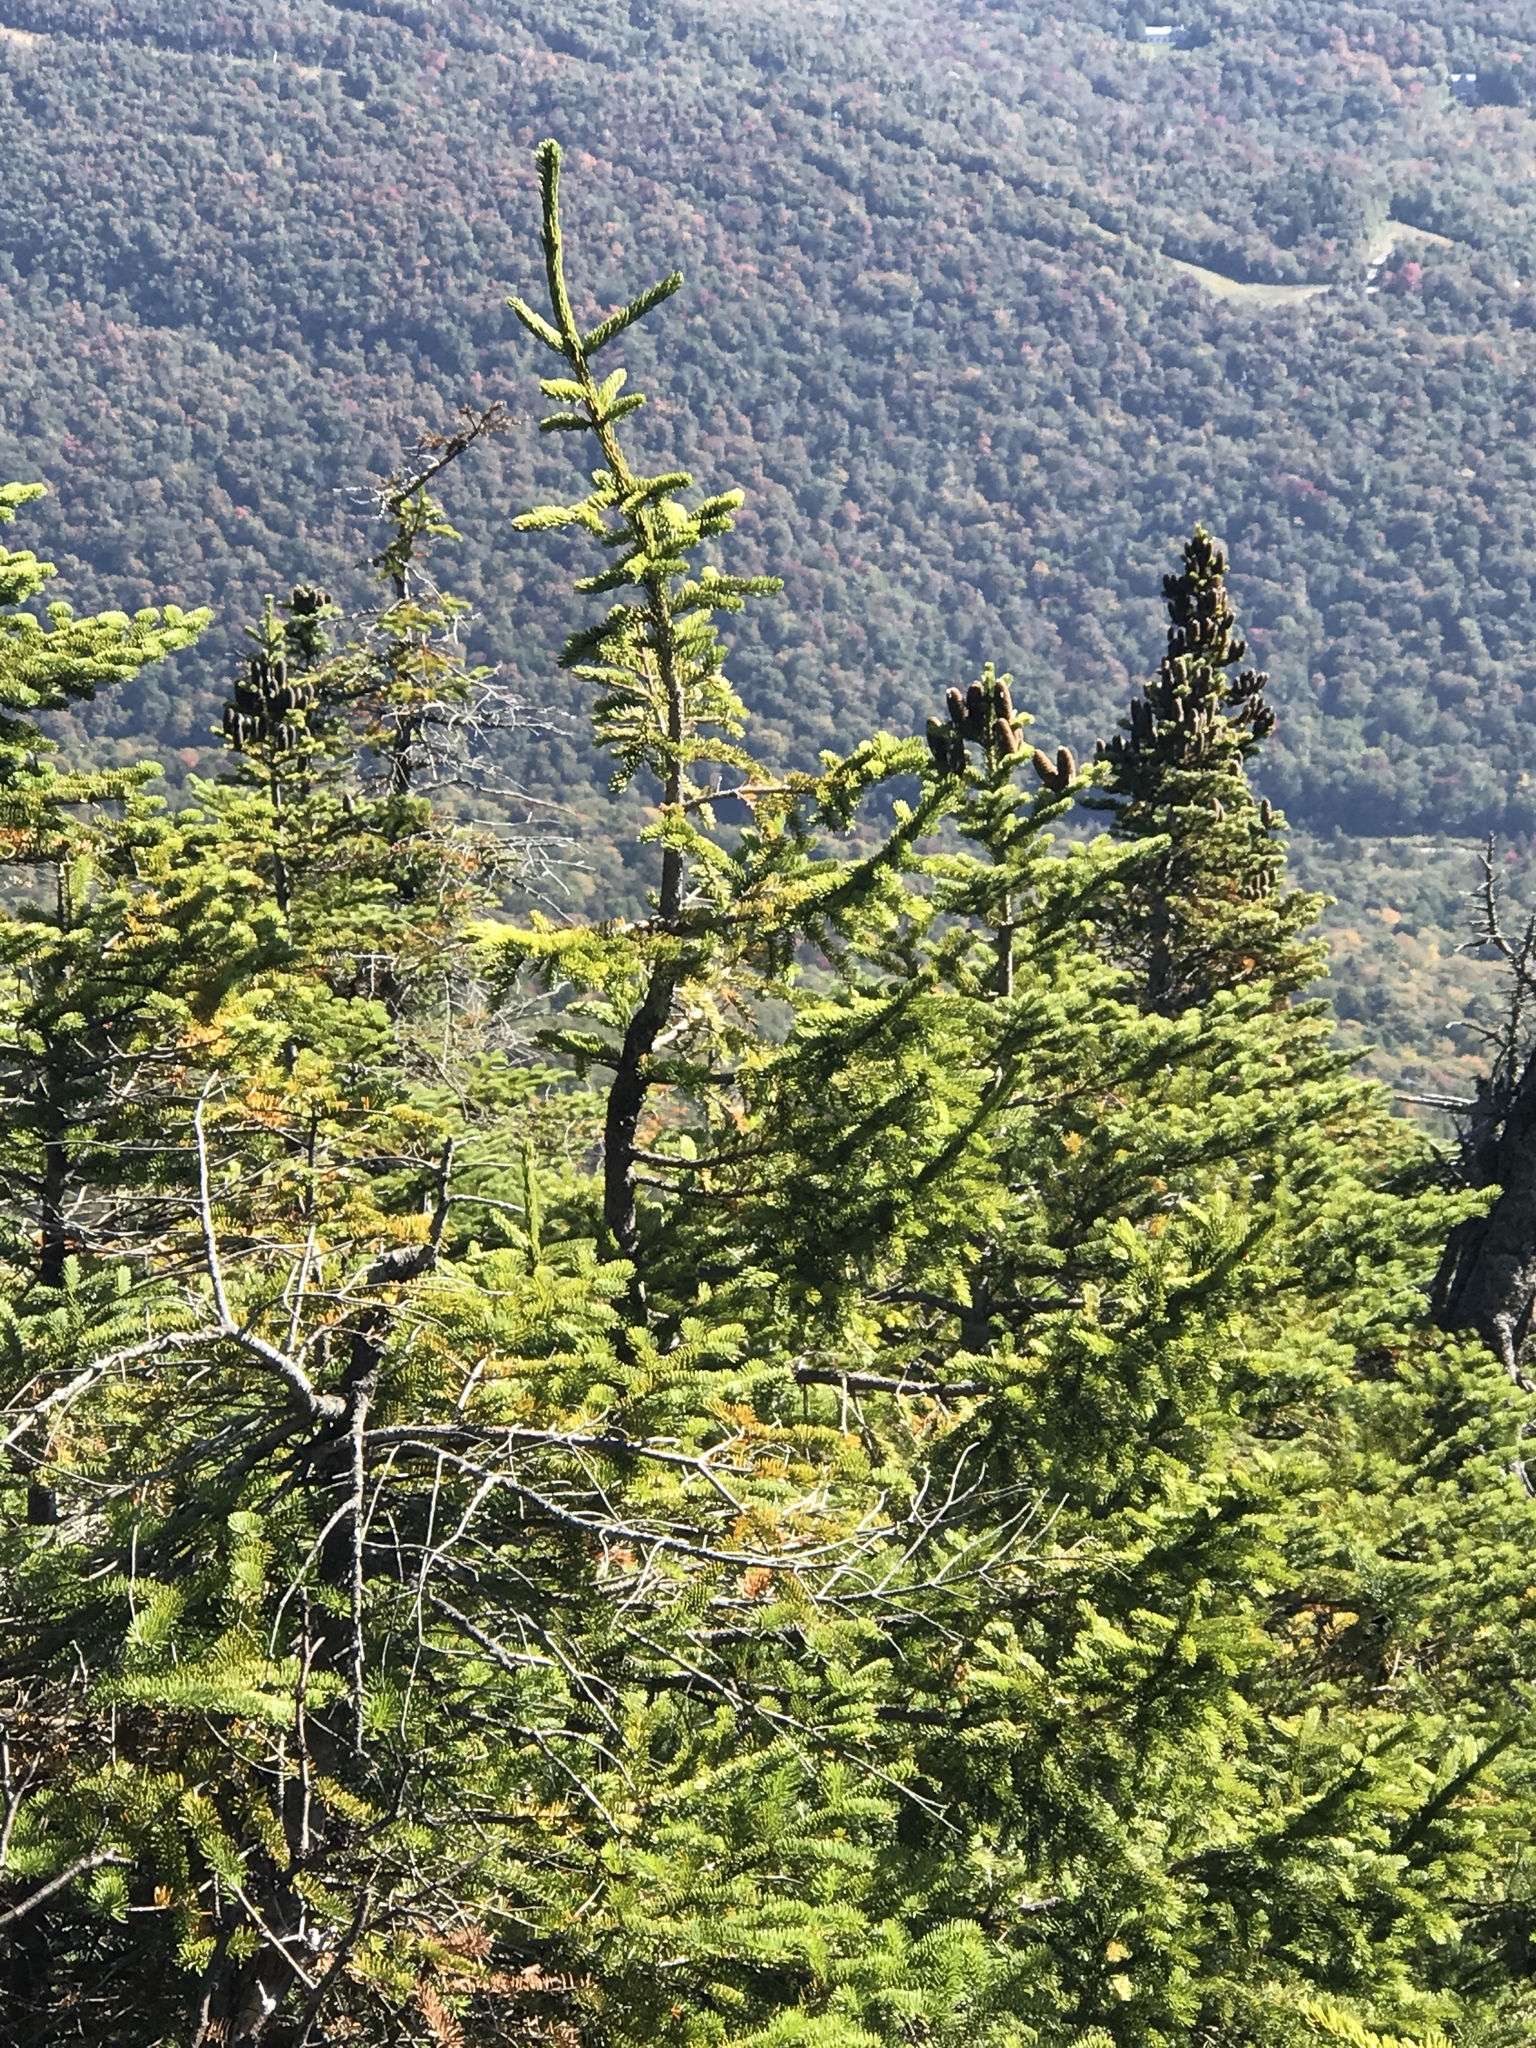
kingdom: Plantae
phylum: Tracheophyta
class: Pinopsida
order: Pinales
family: Pinaceae
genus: Abies
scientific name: Abies balsamea
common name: Balsam fir
